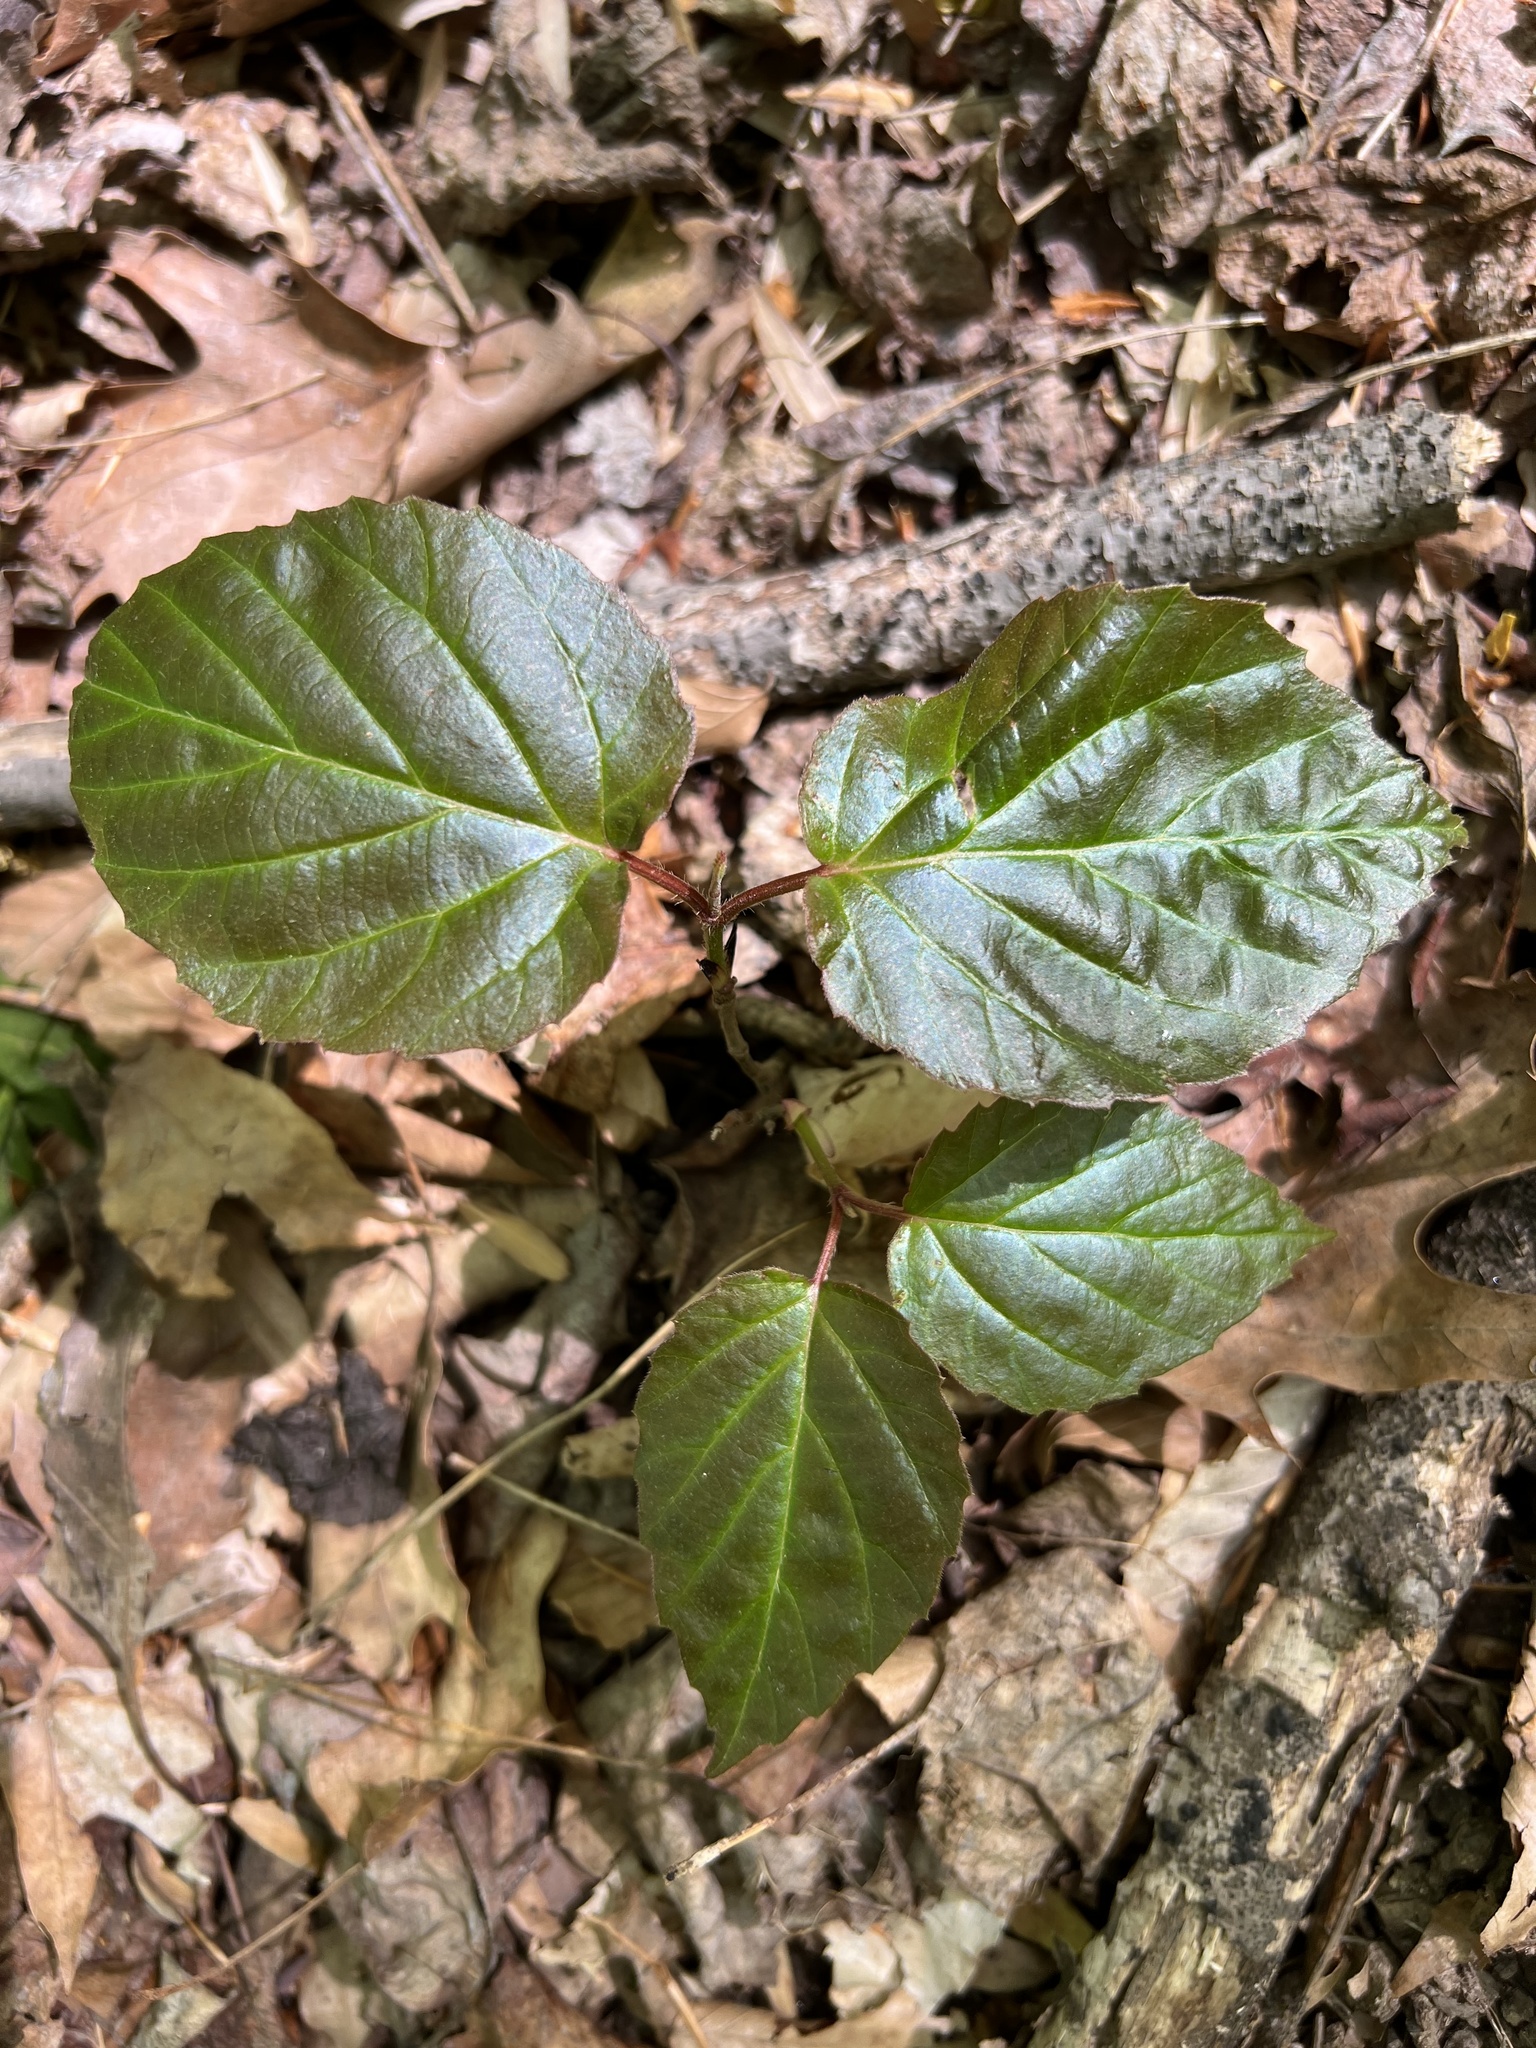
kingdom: Plantae
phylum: Tracheophyta
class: Magnoliopsida
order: Dipsacales
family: Viburnaceae
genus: Viburnum
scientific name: Viburnum setigerum
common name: Tea viburnum
